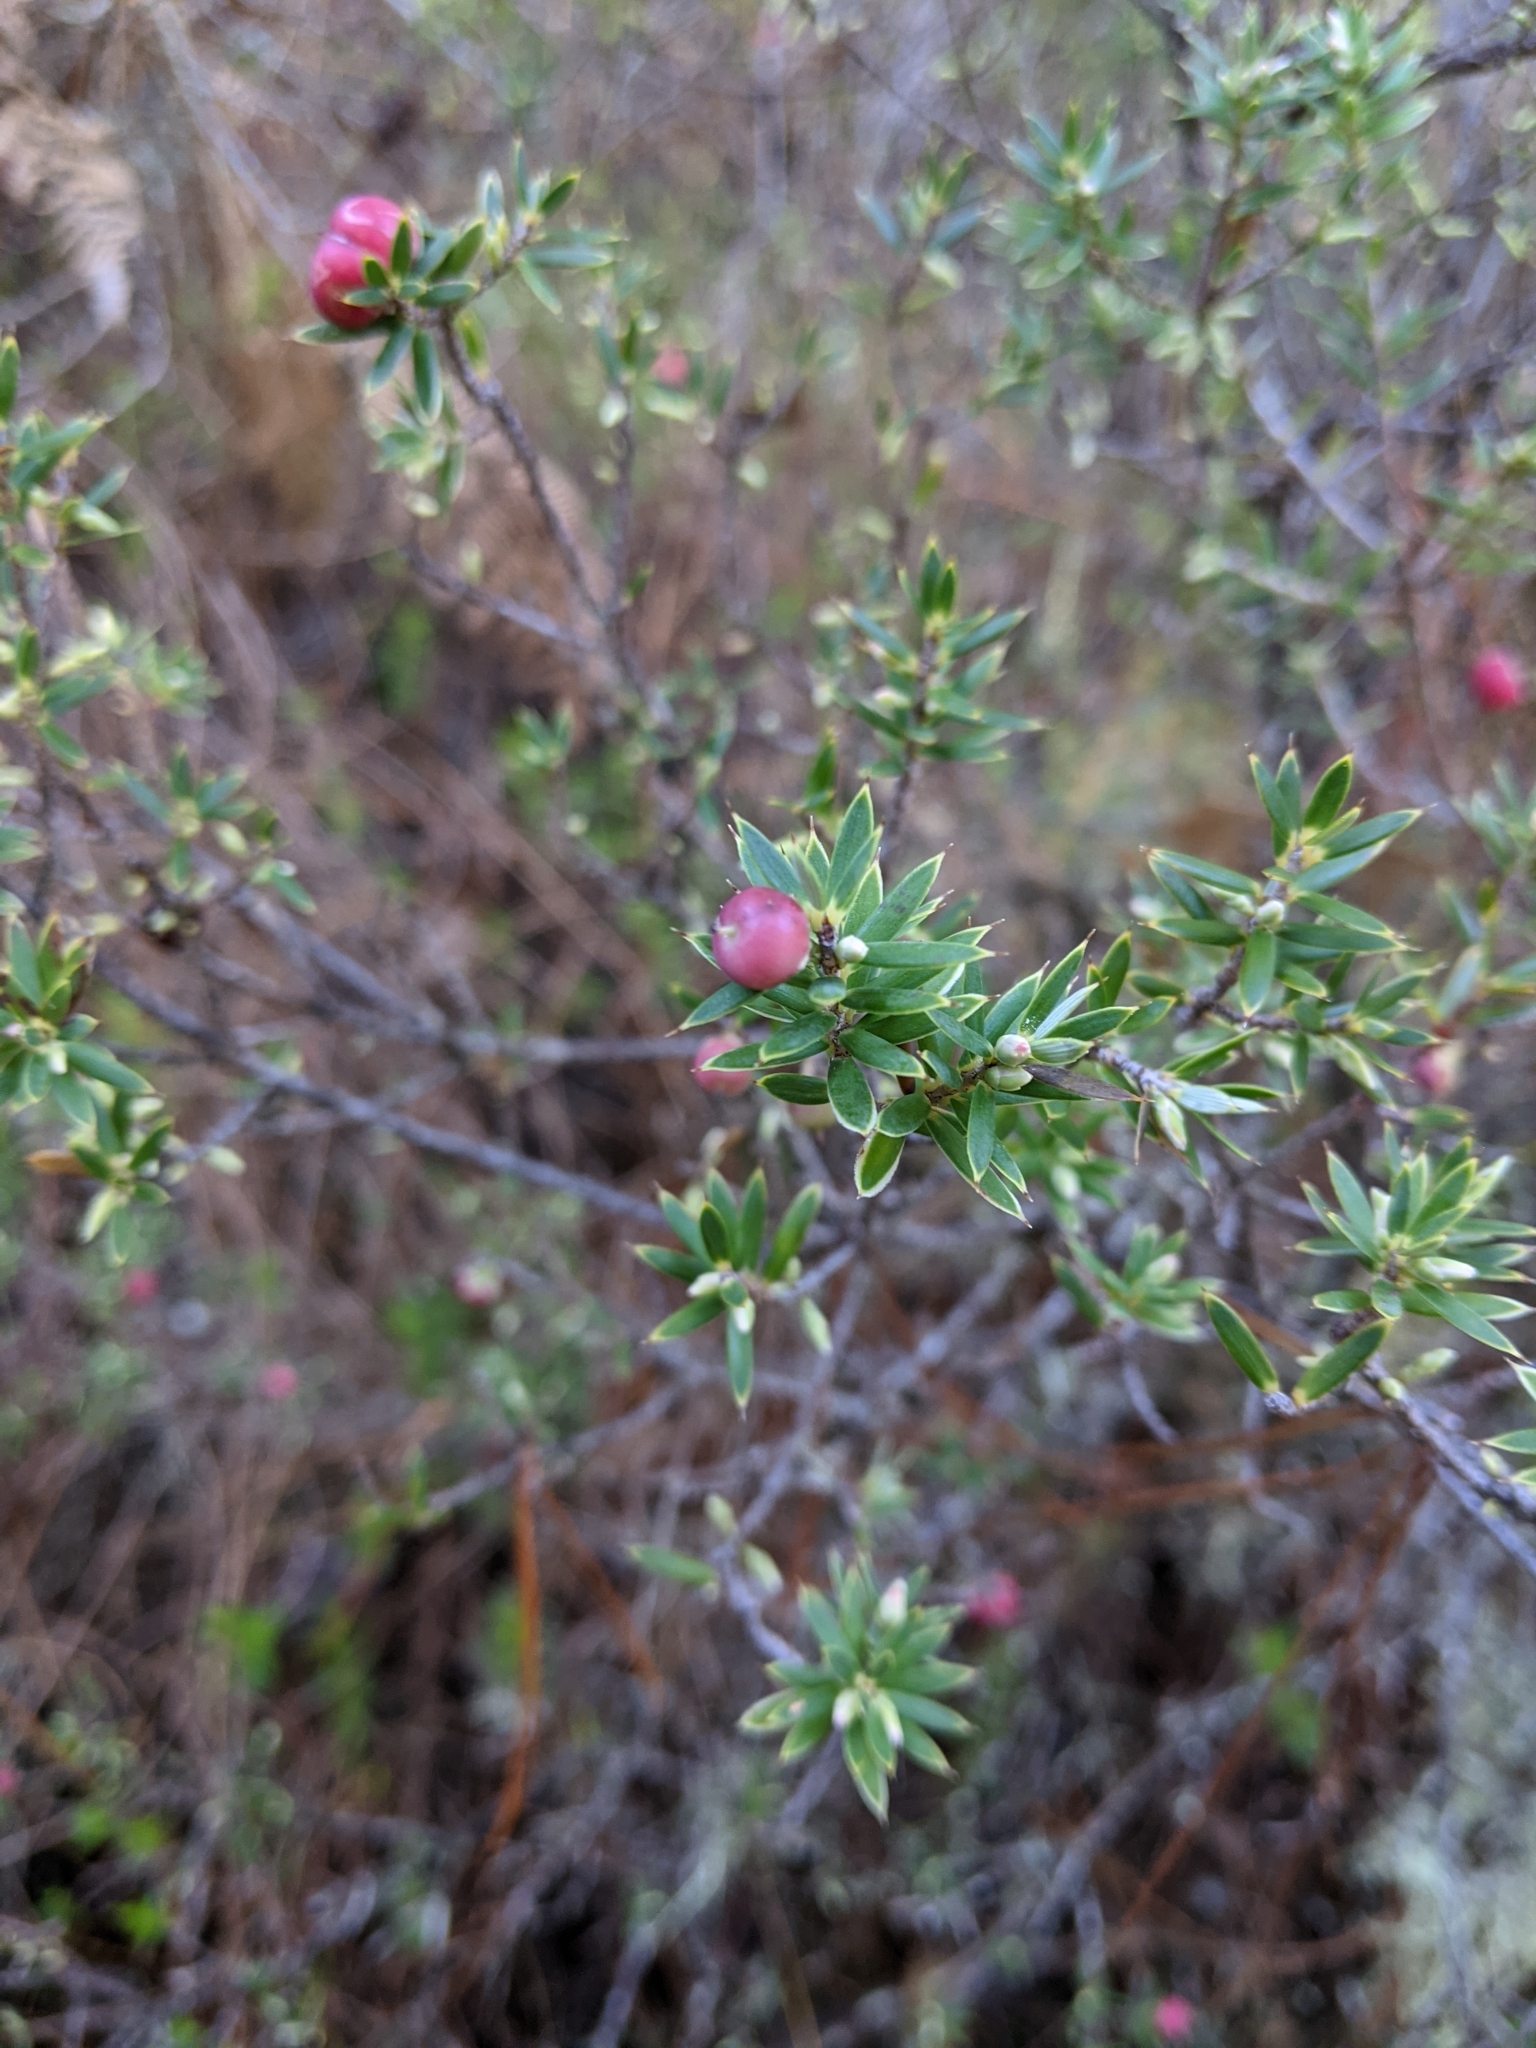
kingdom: Plantae
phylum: Tracheophyta
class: Magnoliopsida
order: Ericales
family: Ericaceae
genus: Leptecophylla
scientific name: Leptecophylla tameiameiae
